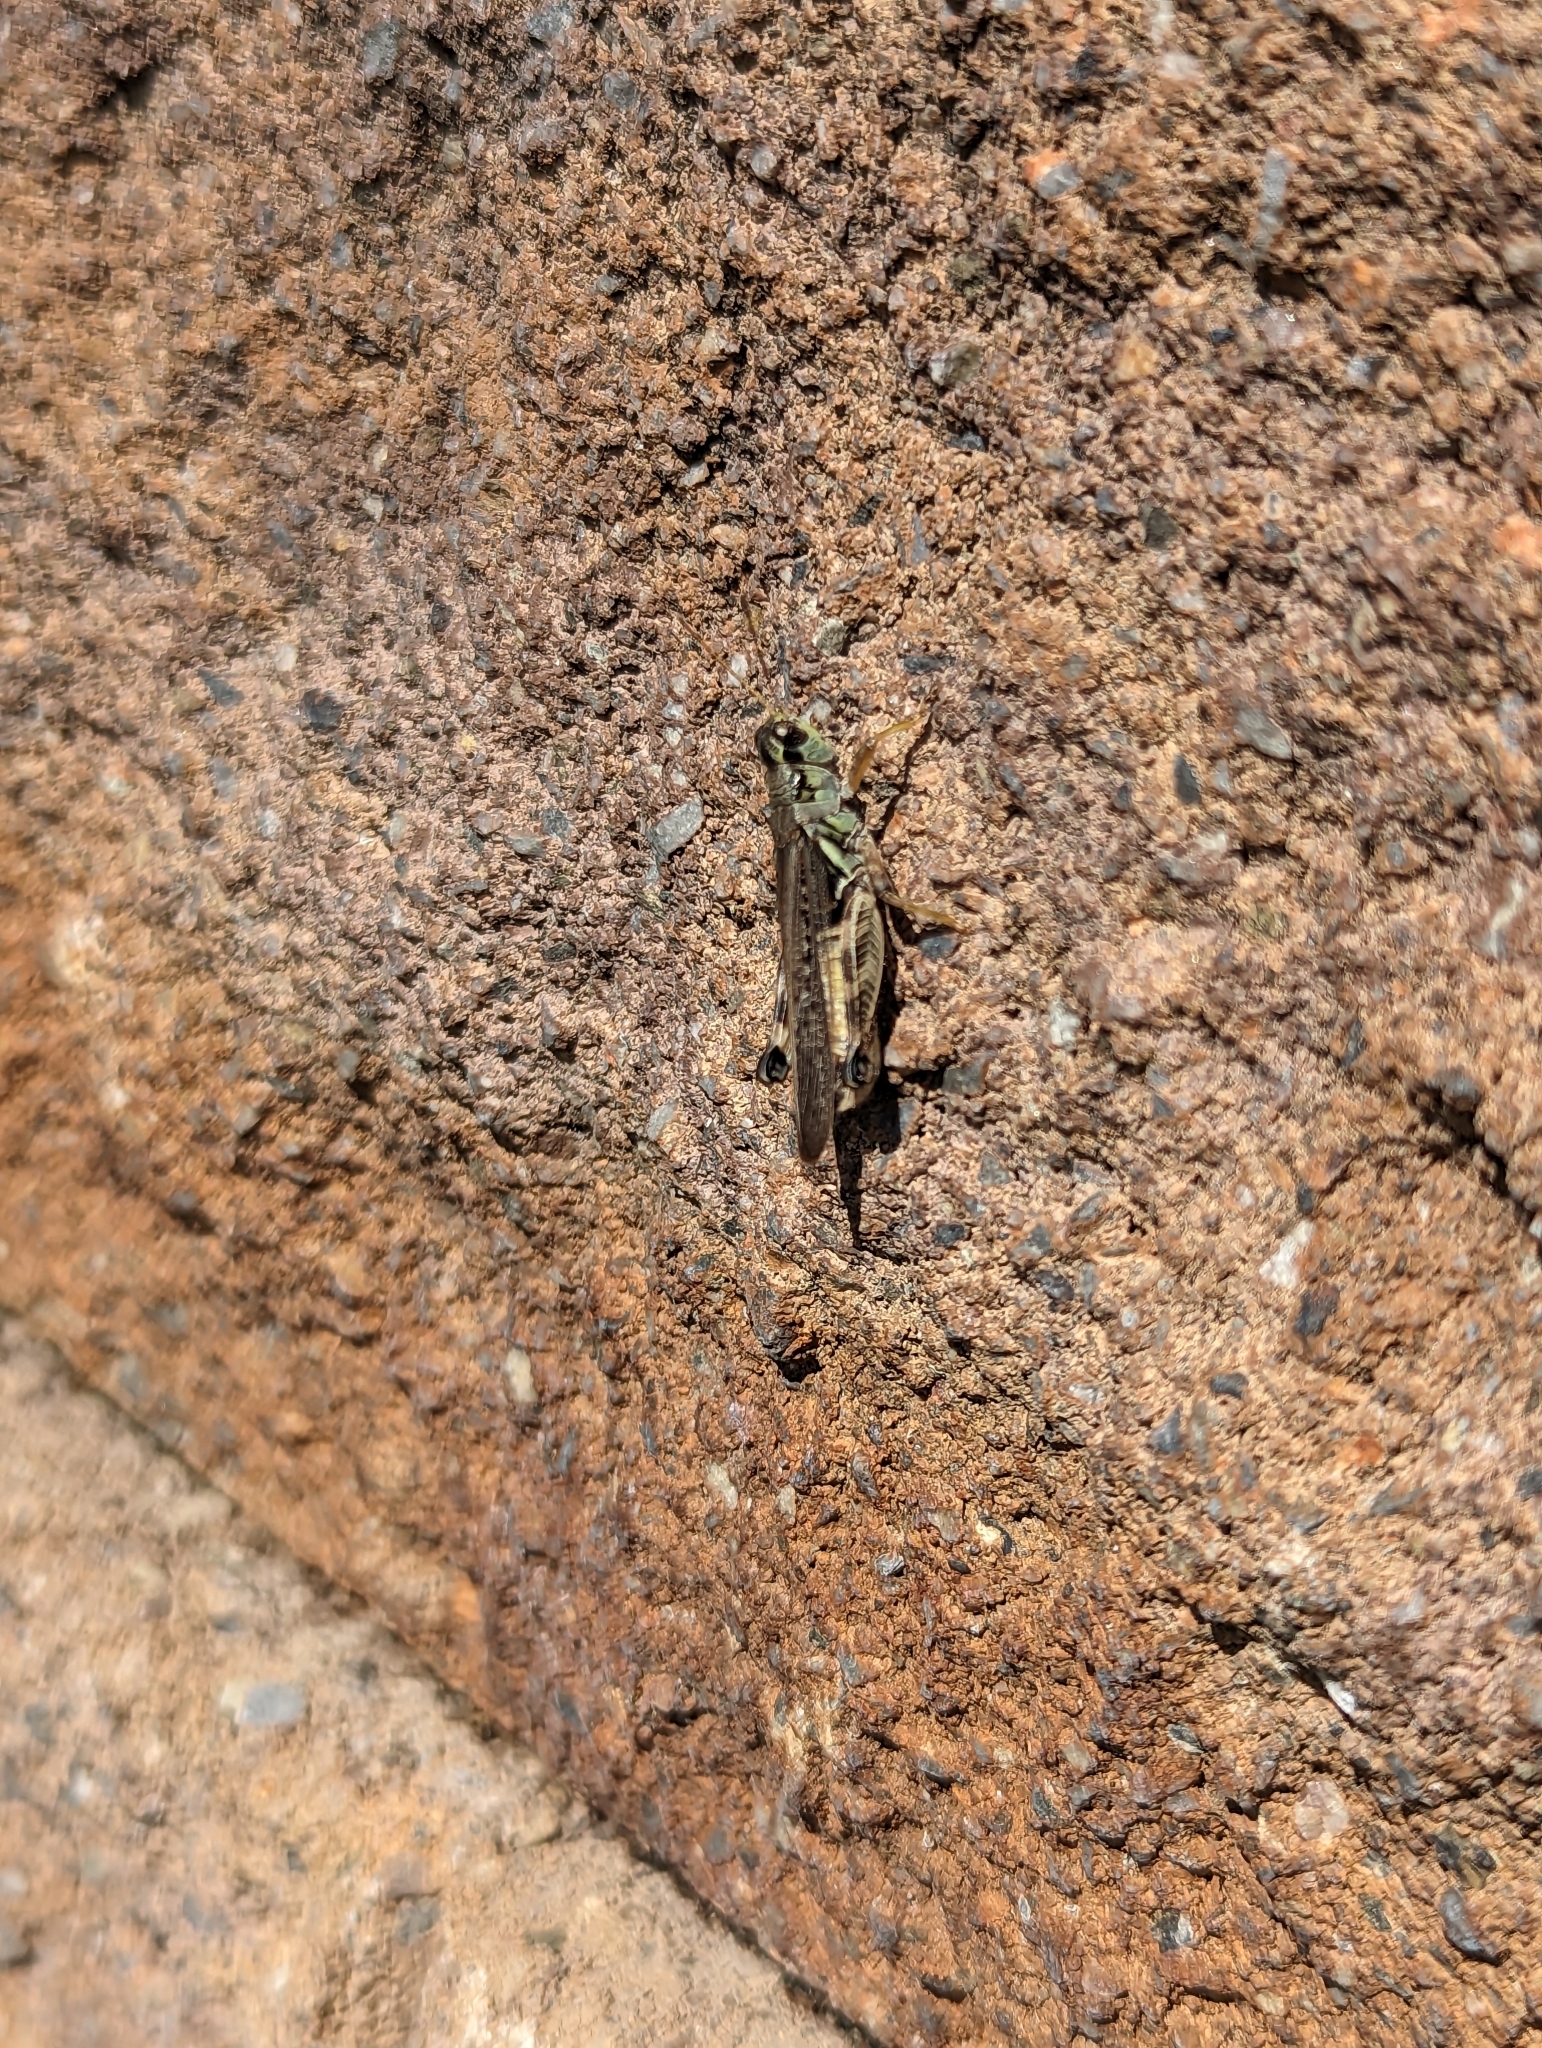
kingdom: Animalia
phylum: Arthropoda
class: Insecta
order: Orthoptera
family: Acrididae
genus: Melanoplus
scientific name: Melanoplus sanguinipes
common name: Migratory grasshopper
